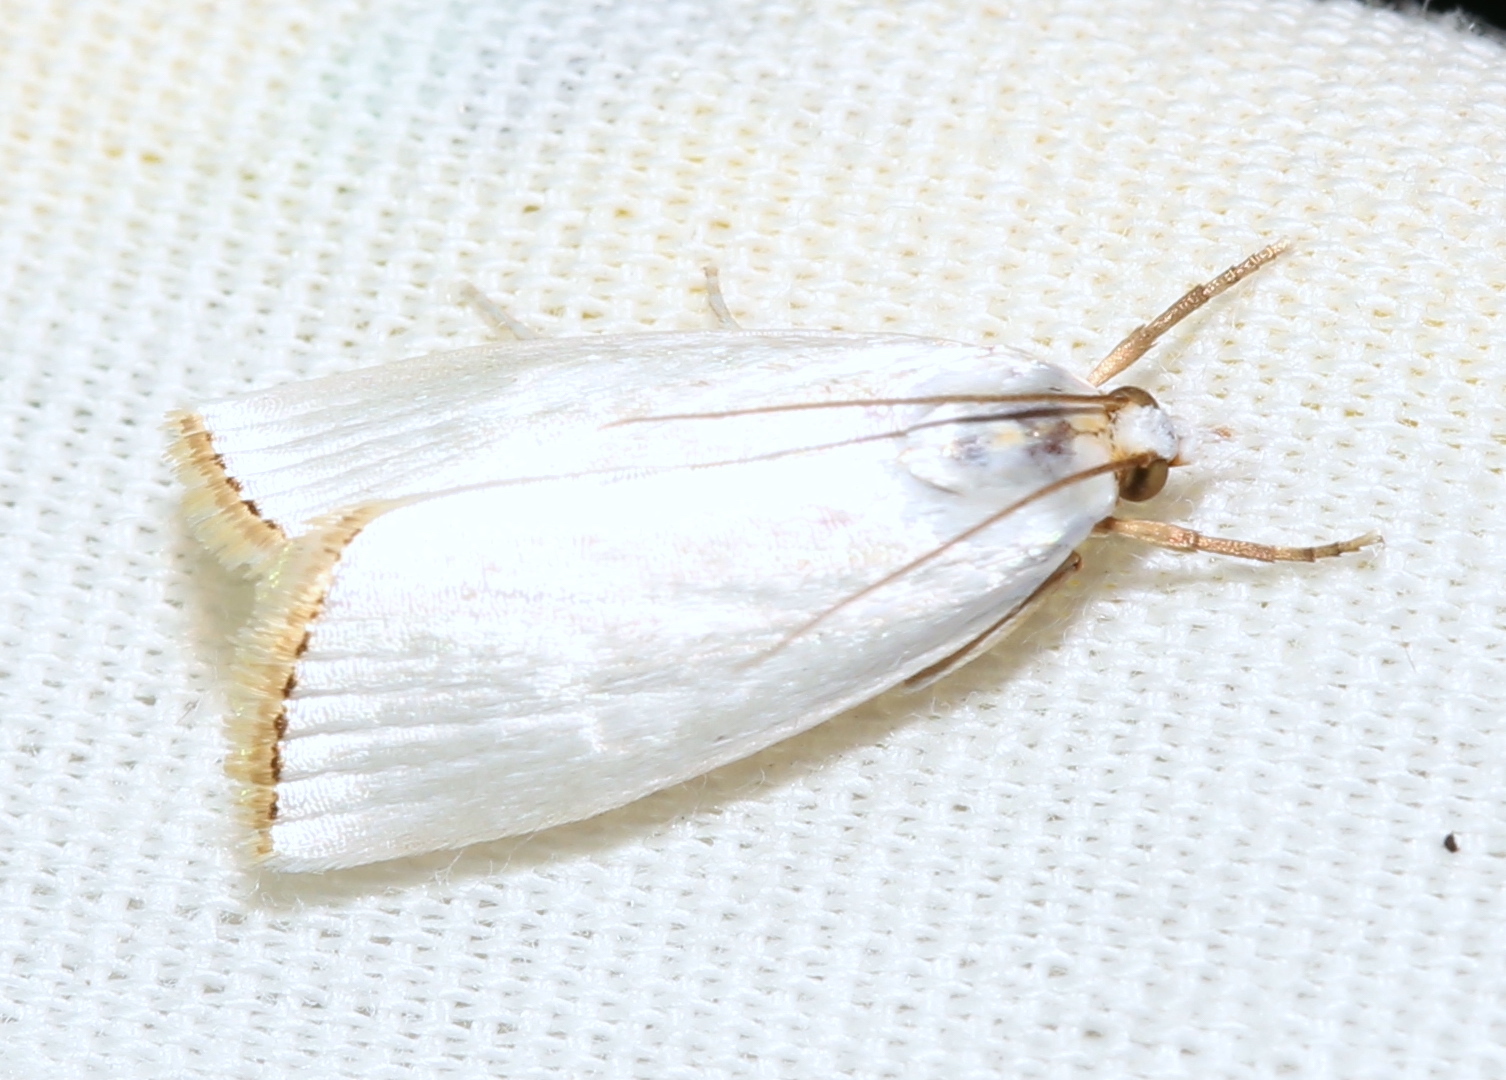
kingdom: Animalia
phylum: Arthropoda
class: Insecta
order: Lepidoptera
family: Crambidae
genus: Argyria
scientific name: Argyria nivalis
